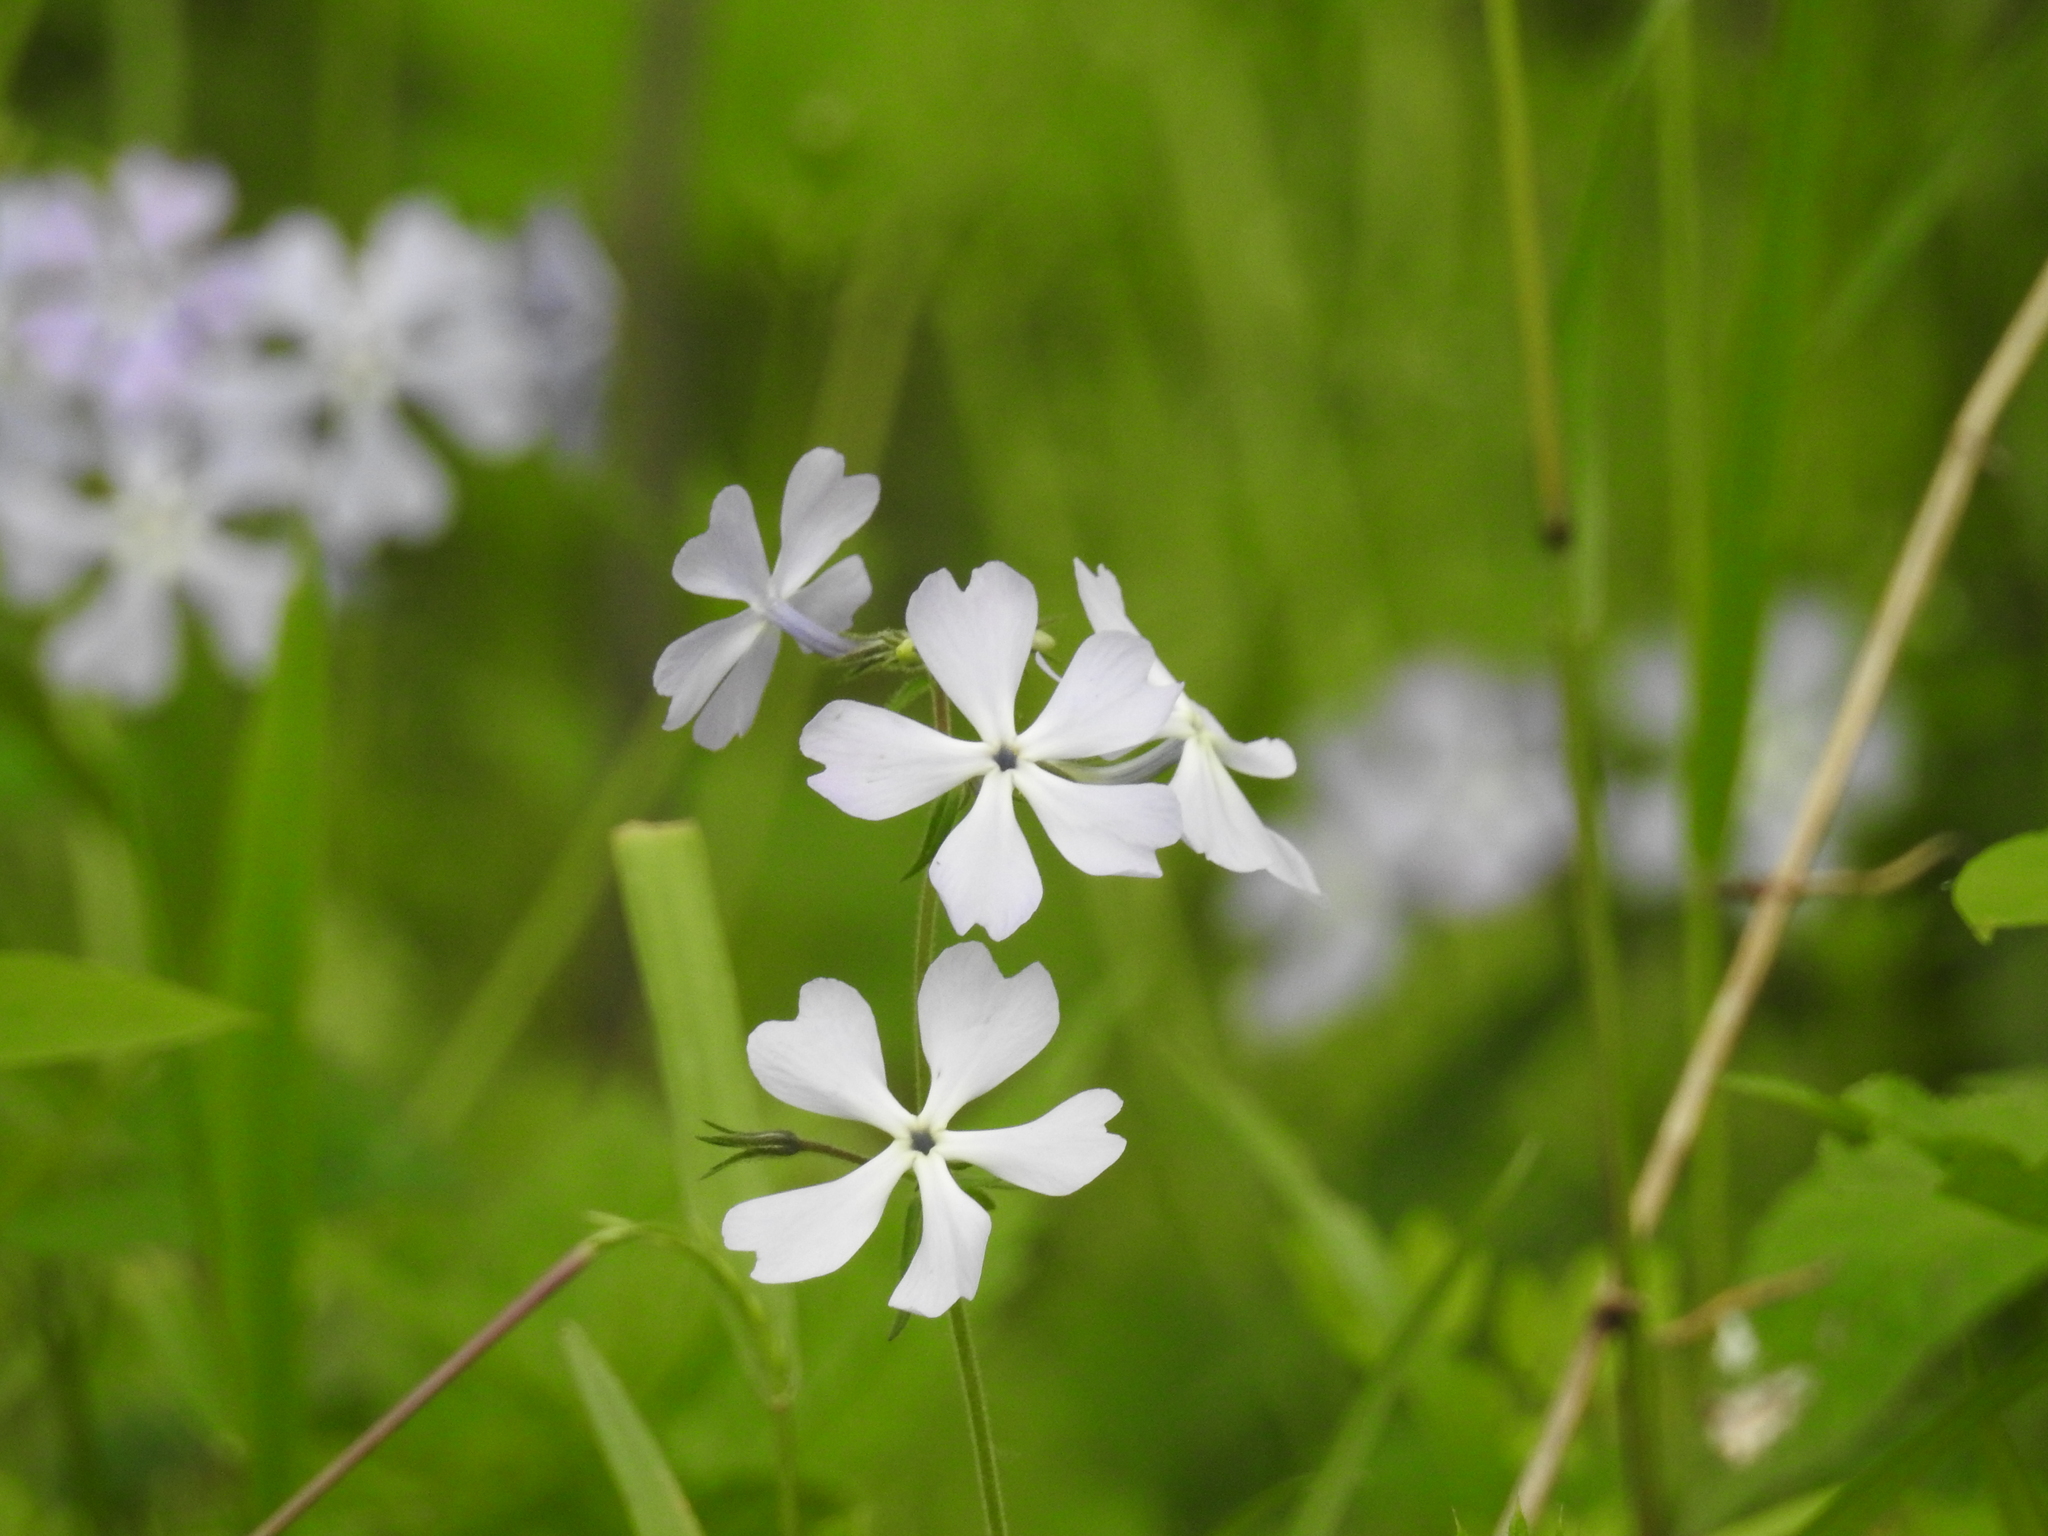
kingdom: Plantae
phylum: Tracheophyta
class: Magnoliopsida
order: Ericales
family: Polemoniaceae
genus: Phlox
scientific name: Phlox divaricata
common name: Blue phlox
